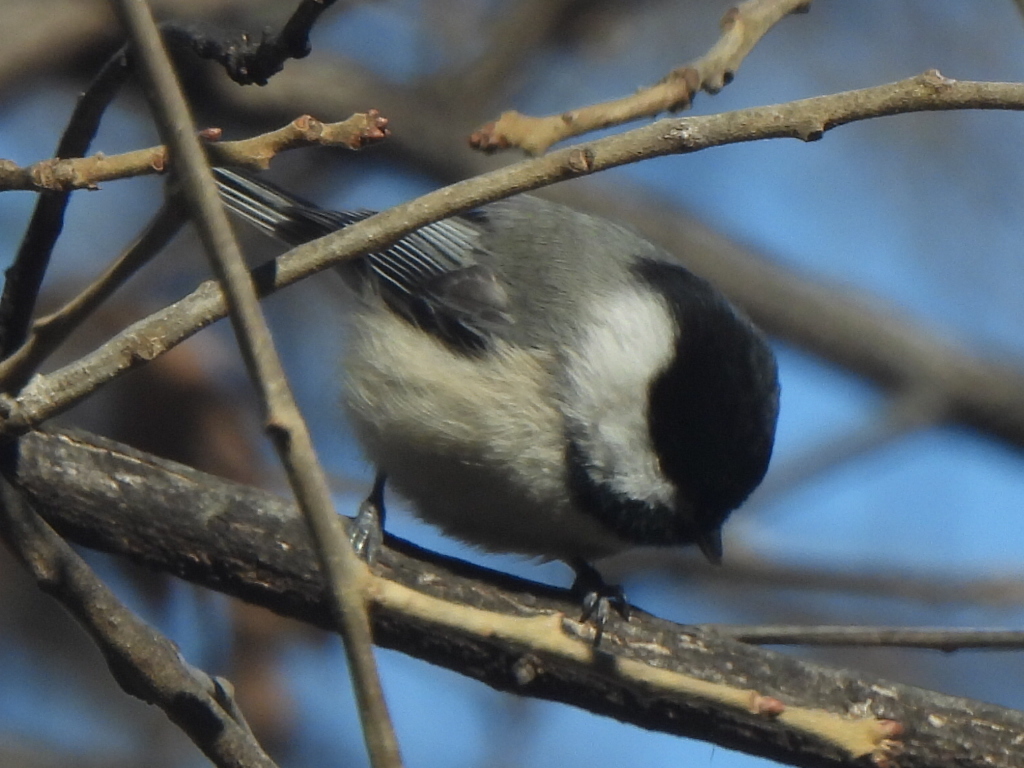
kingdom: Animalia
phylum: Chordata
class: Aves
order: Passeriformes
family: Paridae
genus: Poecile
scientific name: Poecile carolinensis
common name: Carolina chickadee
